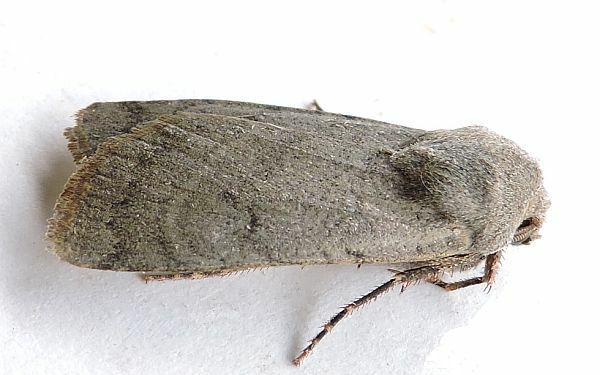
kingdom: Animalia
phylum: Arthropoda
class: Insecta
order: Lepidoptera
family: Noctuidae
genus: Euxoa
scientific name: Euxoa bostoniensis
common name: Boston dart
